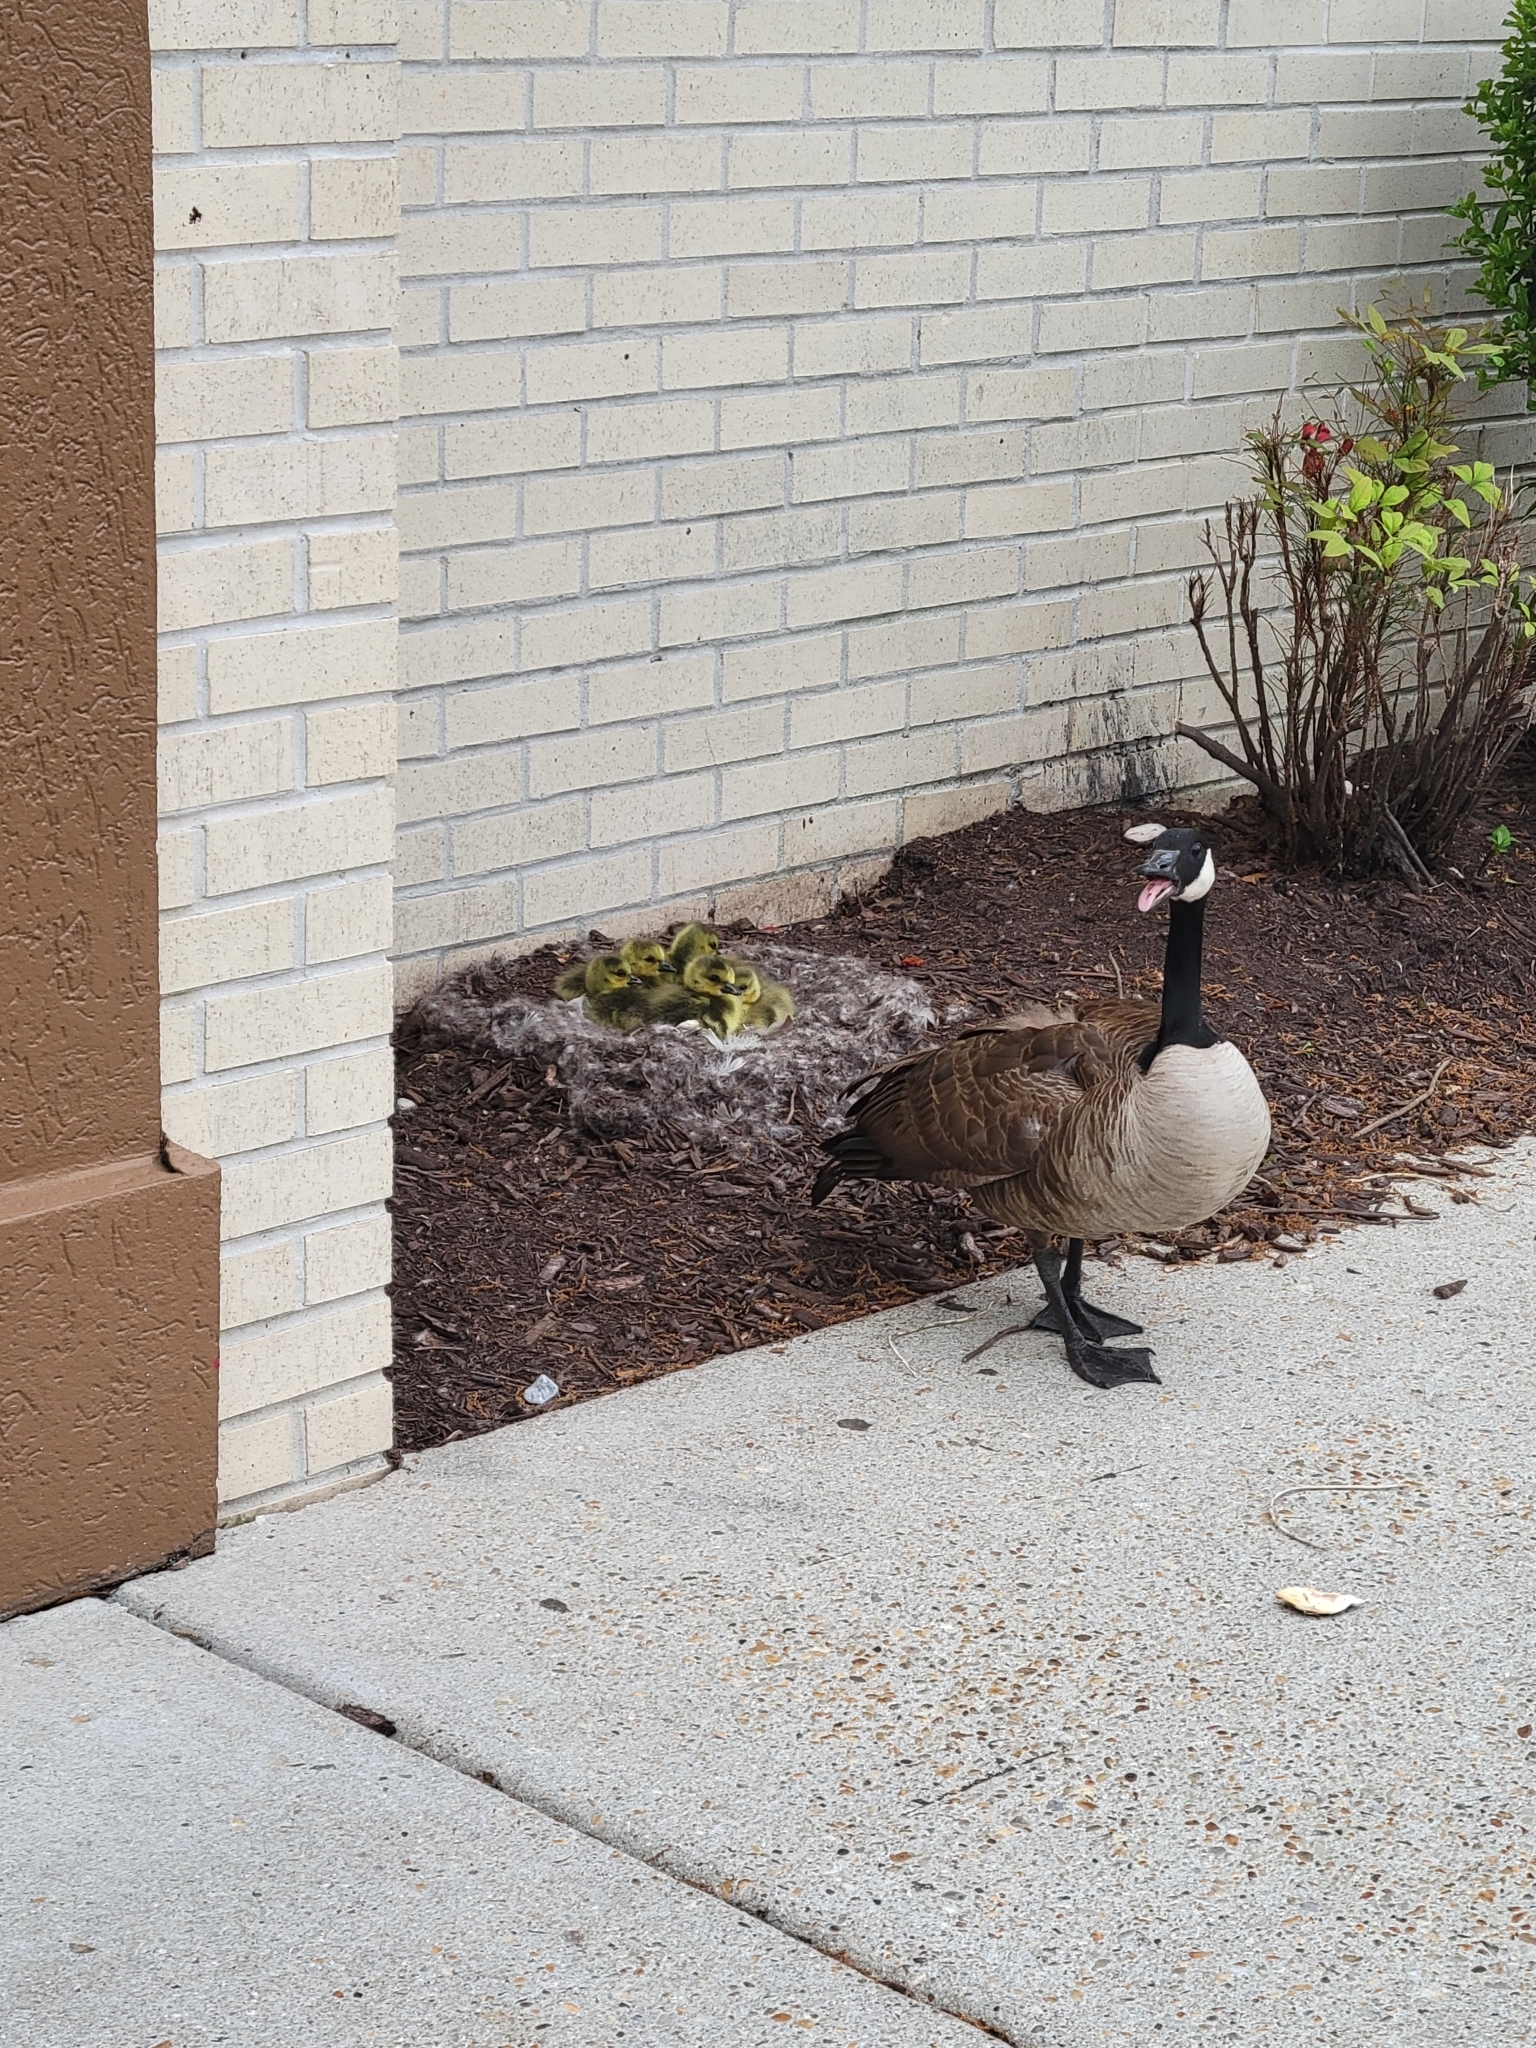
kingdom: Animalia
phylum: Chordata
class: Aves
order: Anseriformes
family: Anatidae
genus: Branta
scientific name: Branta canadensis
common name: Canada goose
